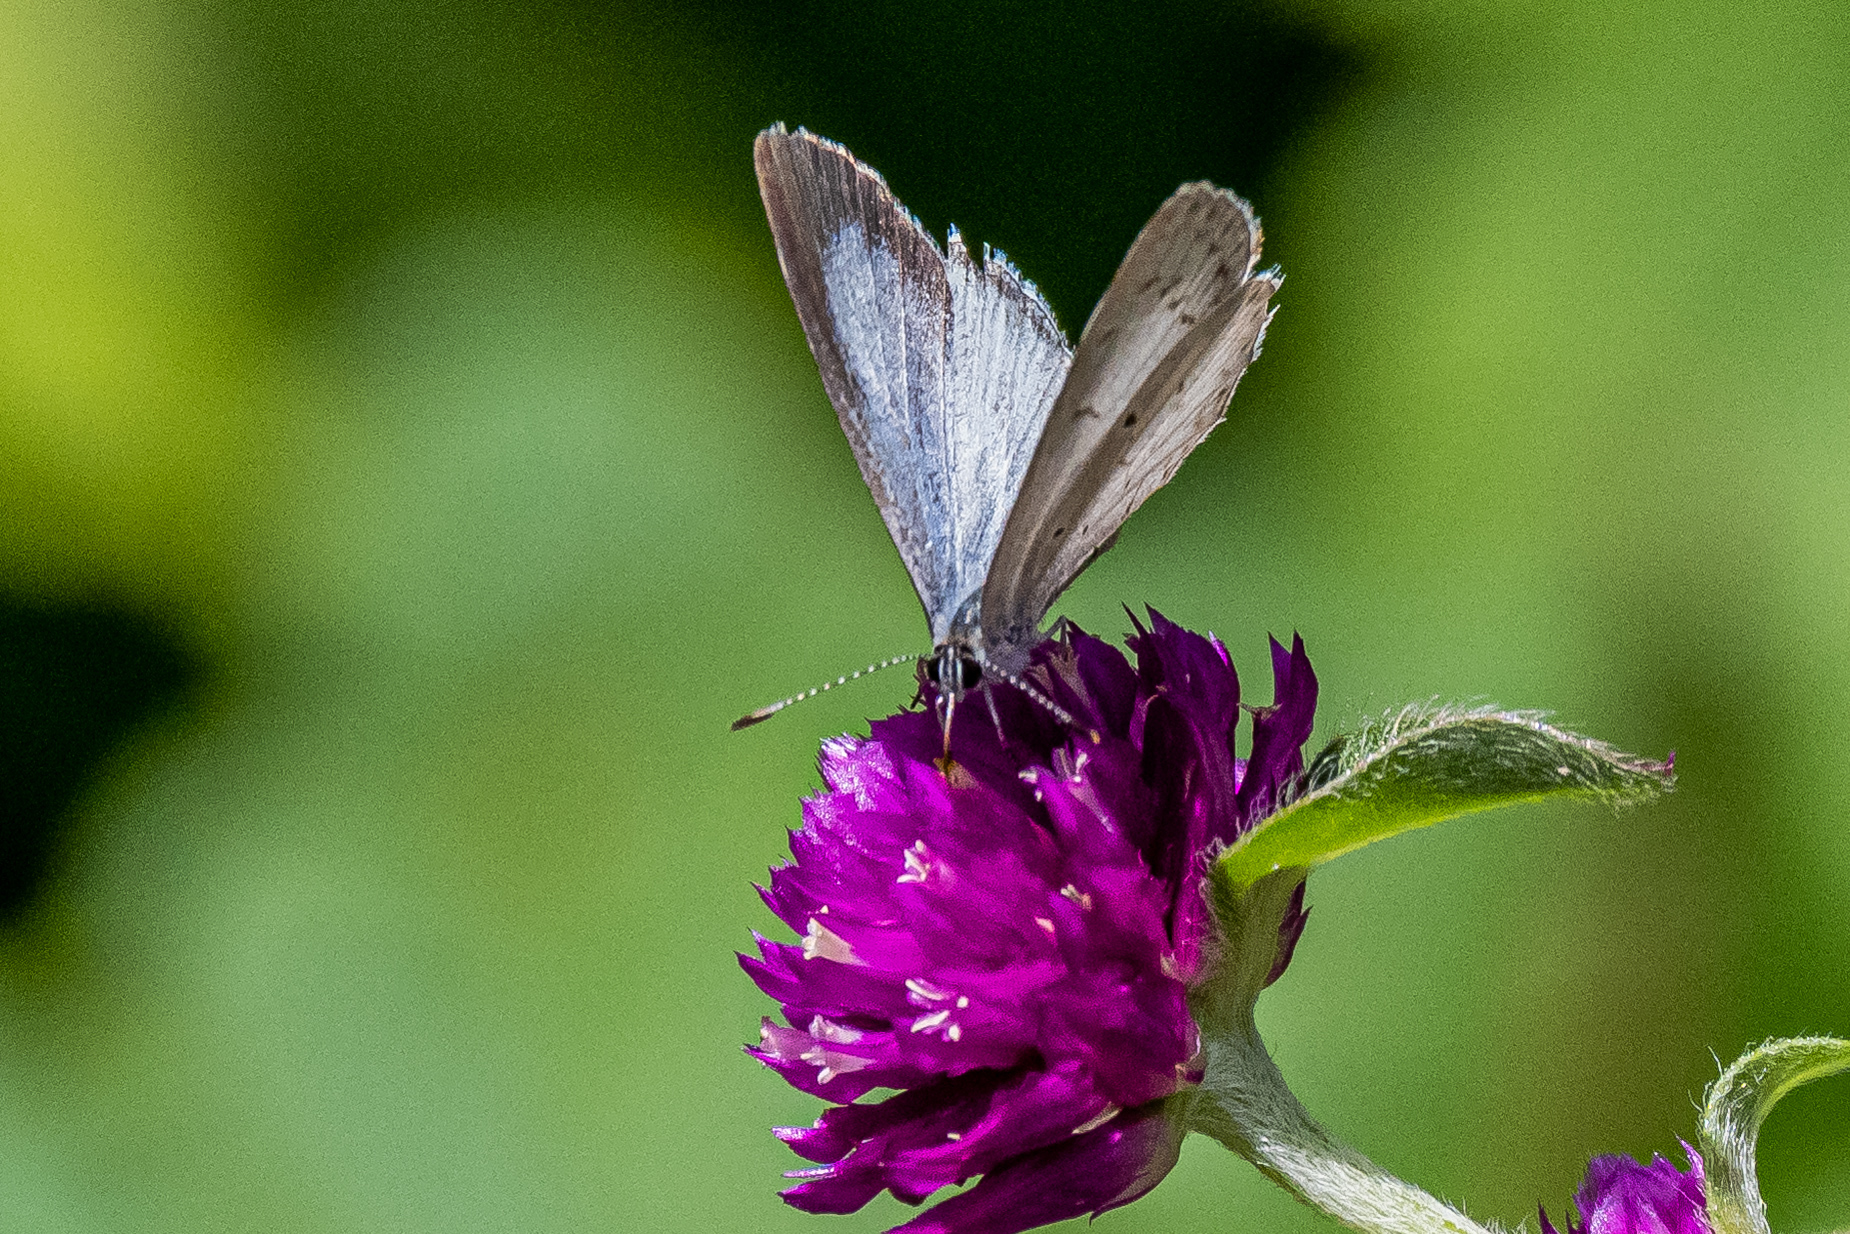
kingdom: Animalia
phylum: Arthropoda
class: Insecta
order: Lepidoptera
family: Lycaenidae
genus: Cyaniris
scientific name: Cyaniris neglecta
